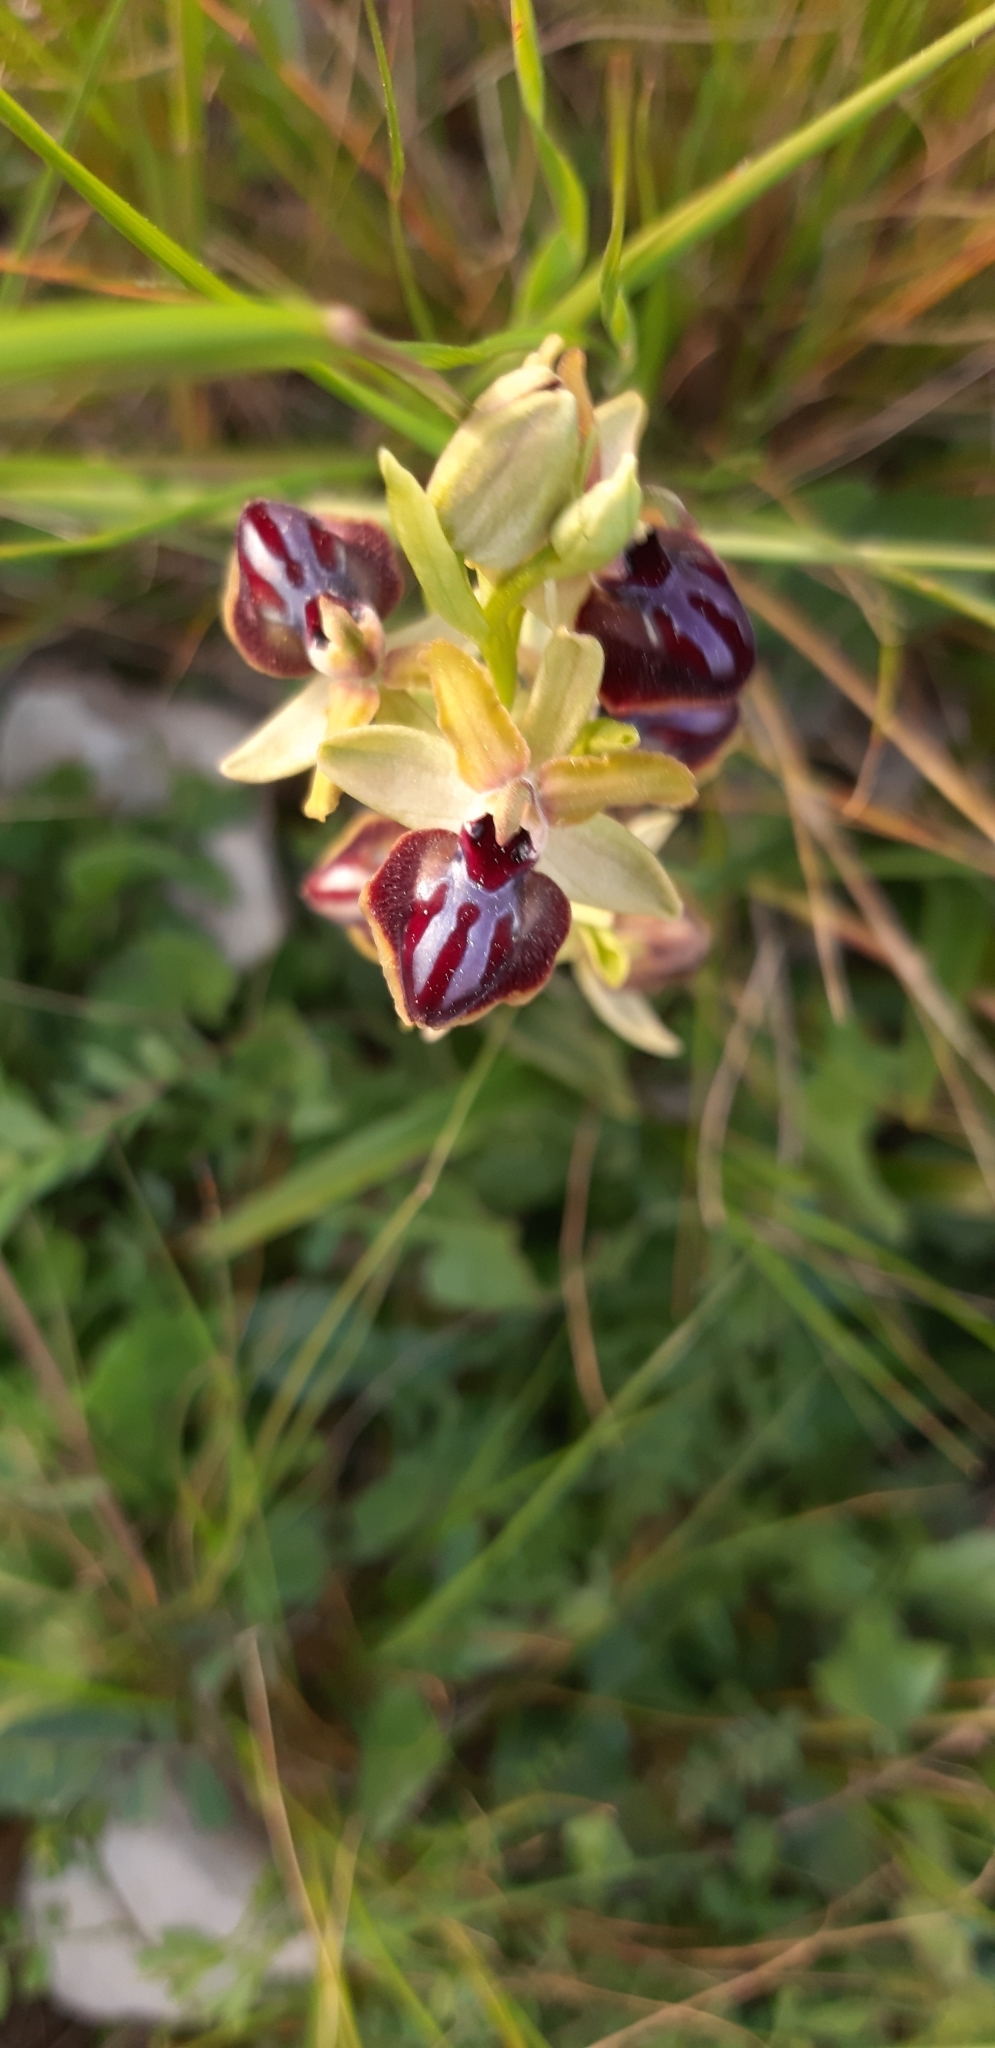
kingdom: Plantae
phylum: Tracheophyta
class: Liliopsida
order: Asparagales
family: Orchidaceae
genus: Ophrys
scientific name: Ophrys sphegodes
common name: Early spider-orchid
